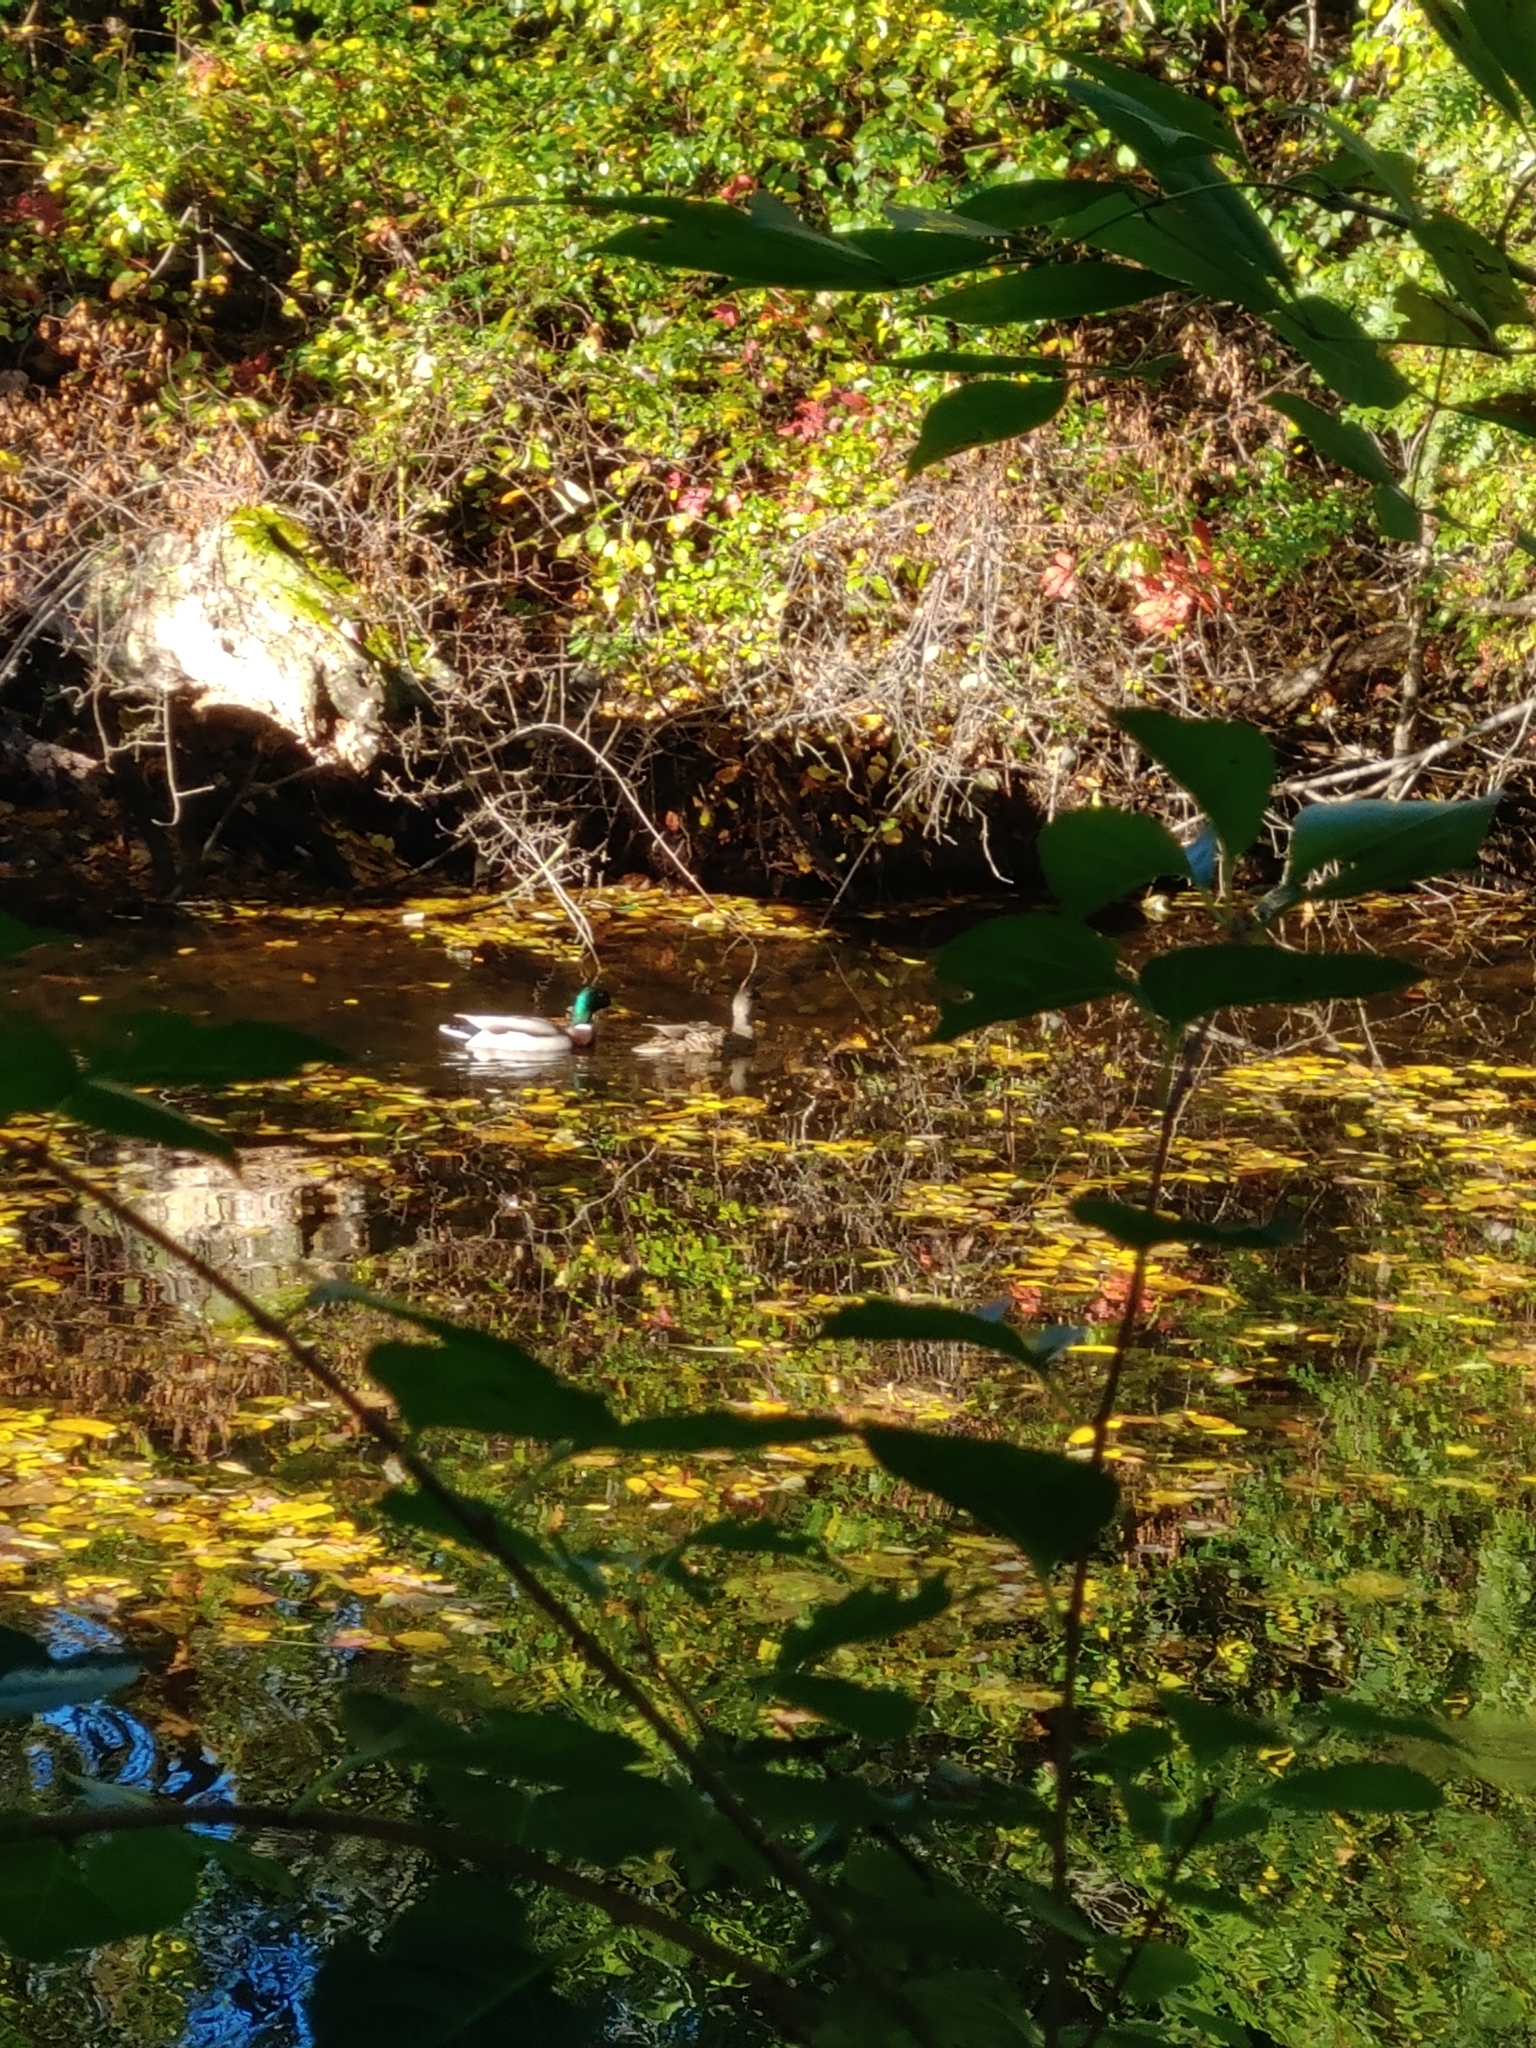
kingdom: Animalia
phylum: Chordata
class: Aves
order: Anseriformes
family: Anatidae
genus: Anas
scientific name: Anas platyrhynchos
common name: Mallard
